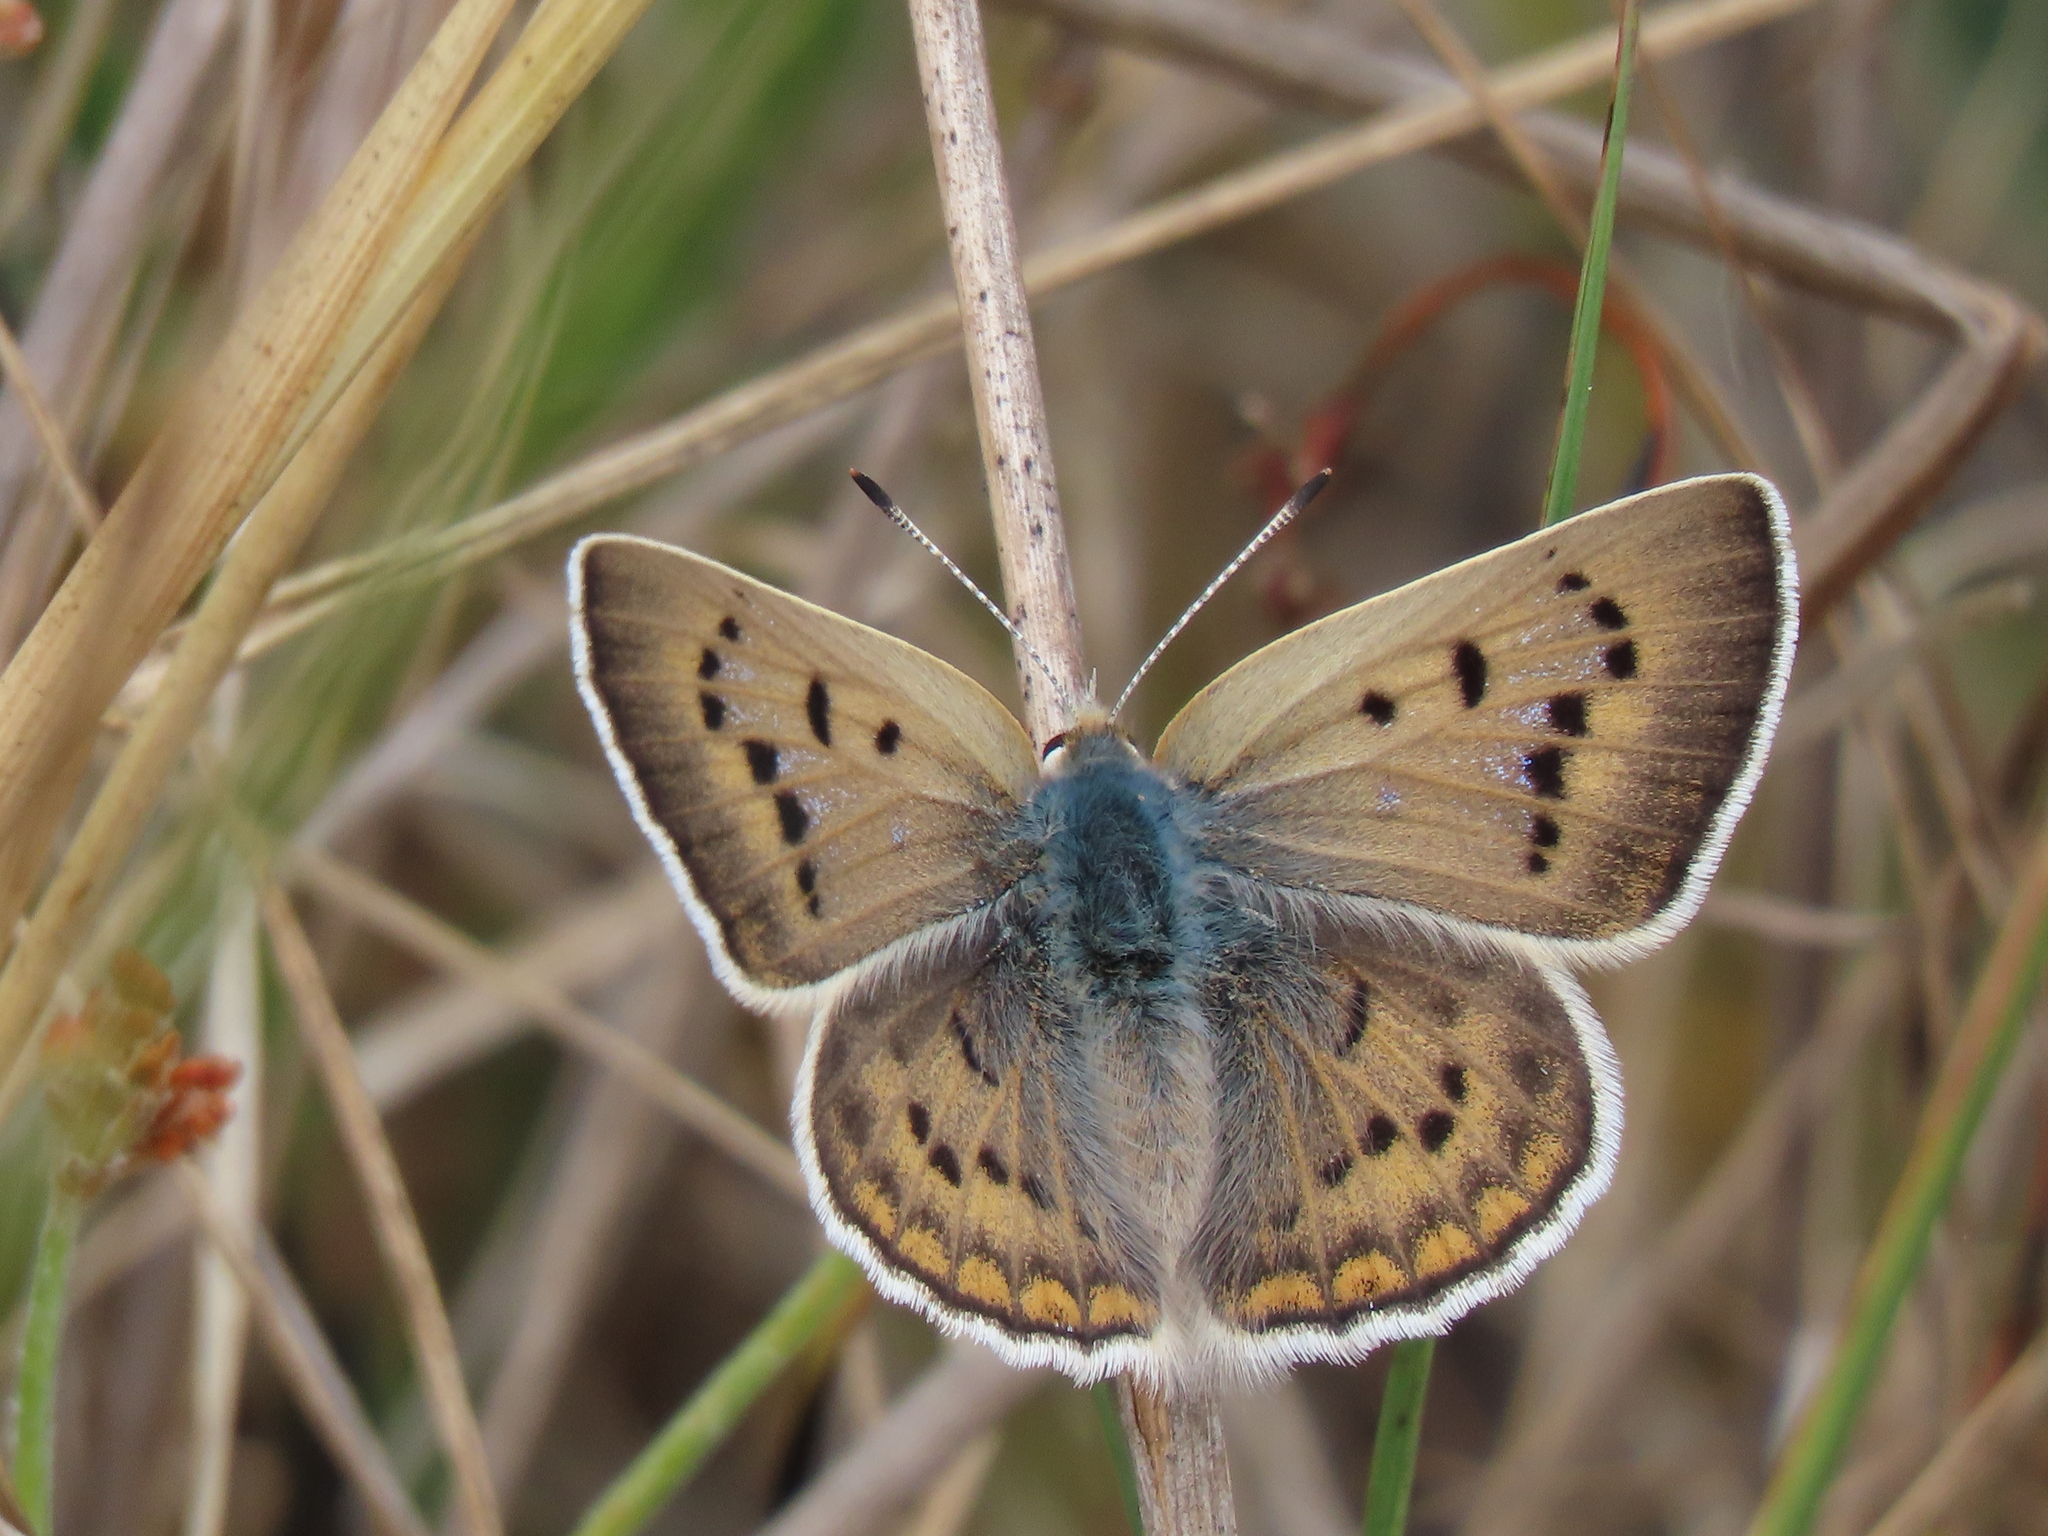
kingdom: Animalia
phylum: Arthropoda
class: Insecta
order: Lepidoptera
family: Lycaenidae
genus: Tharsalea
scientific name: Tharsalea heteronea
